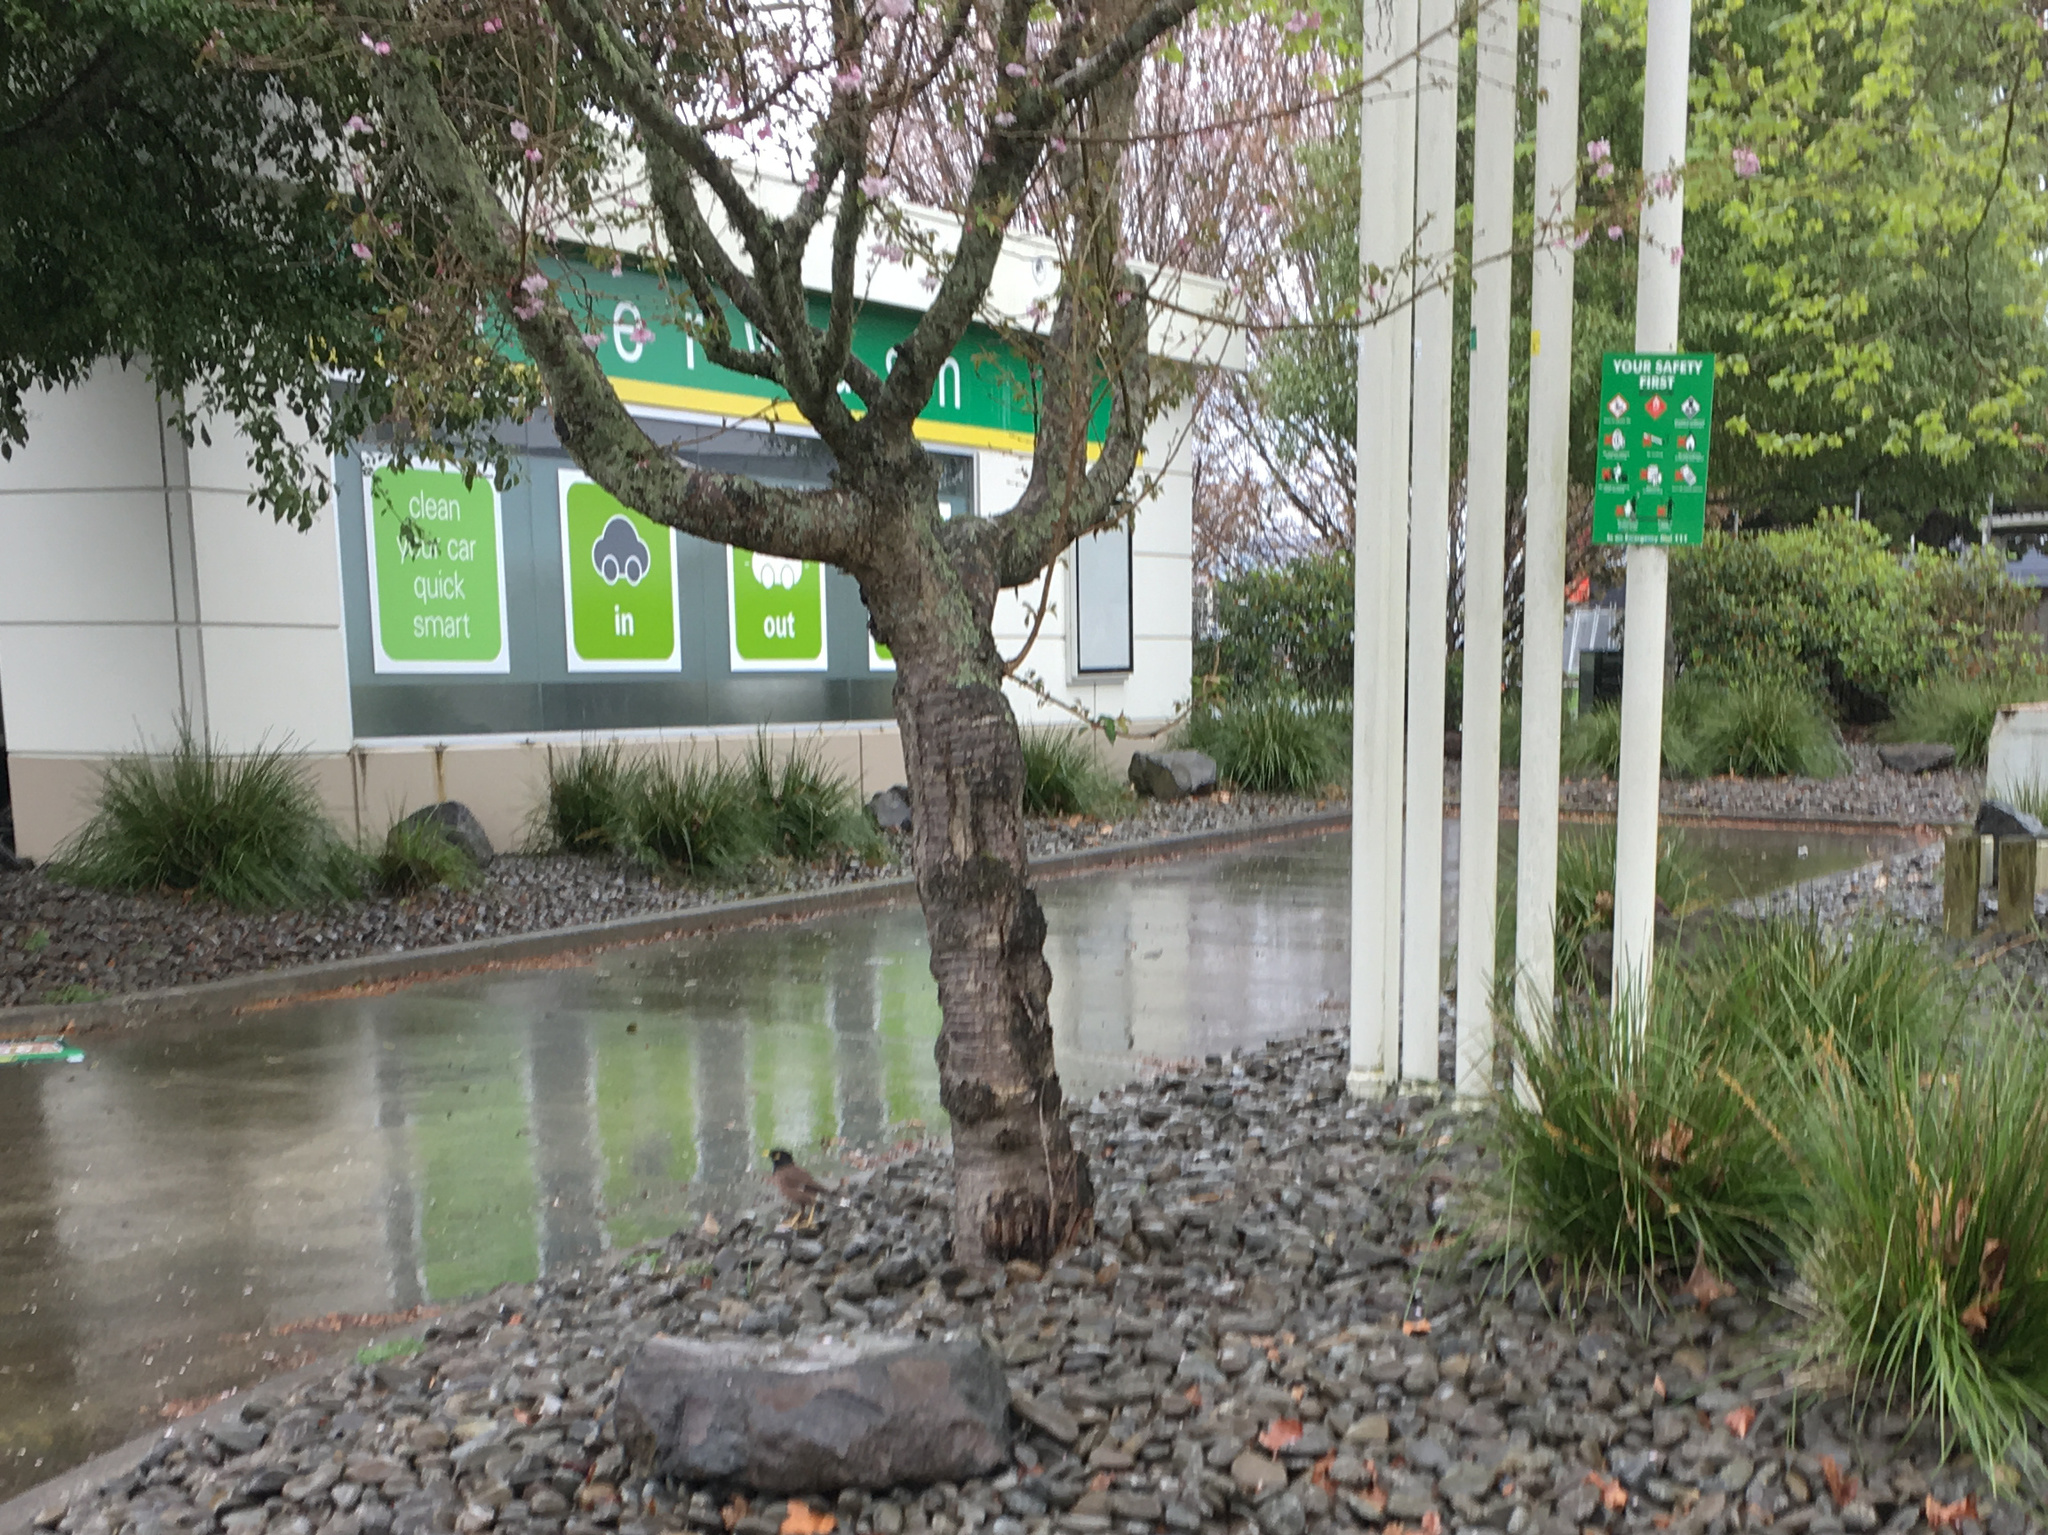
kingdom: Animalia
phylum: Chordata
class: Aves
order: Passeriformes
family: Sturnidae
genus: Acridotheres
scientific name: Acridotheres tristis
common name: Common myna
